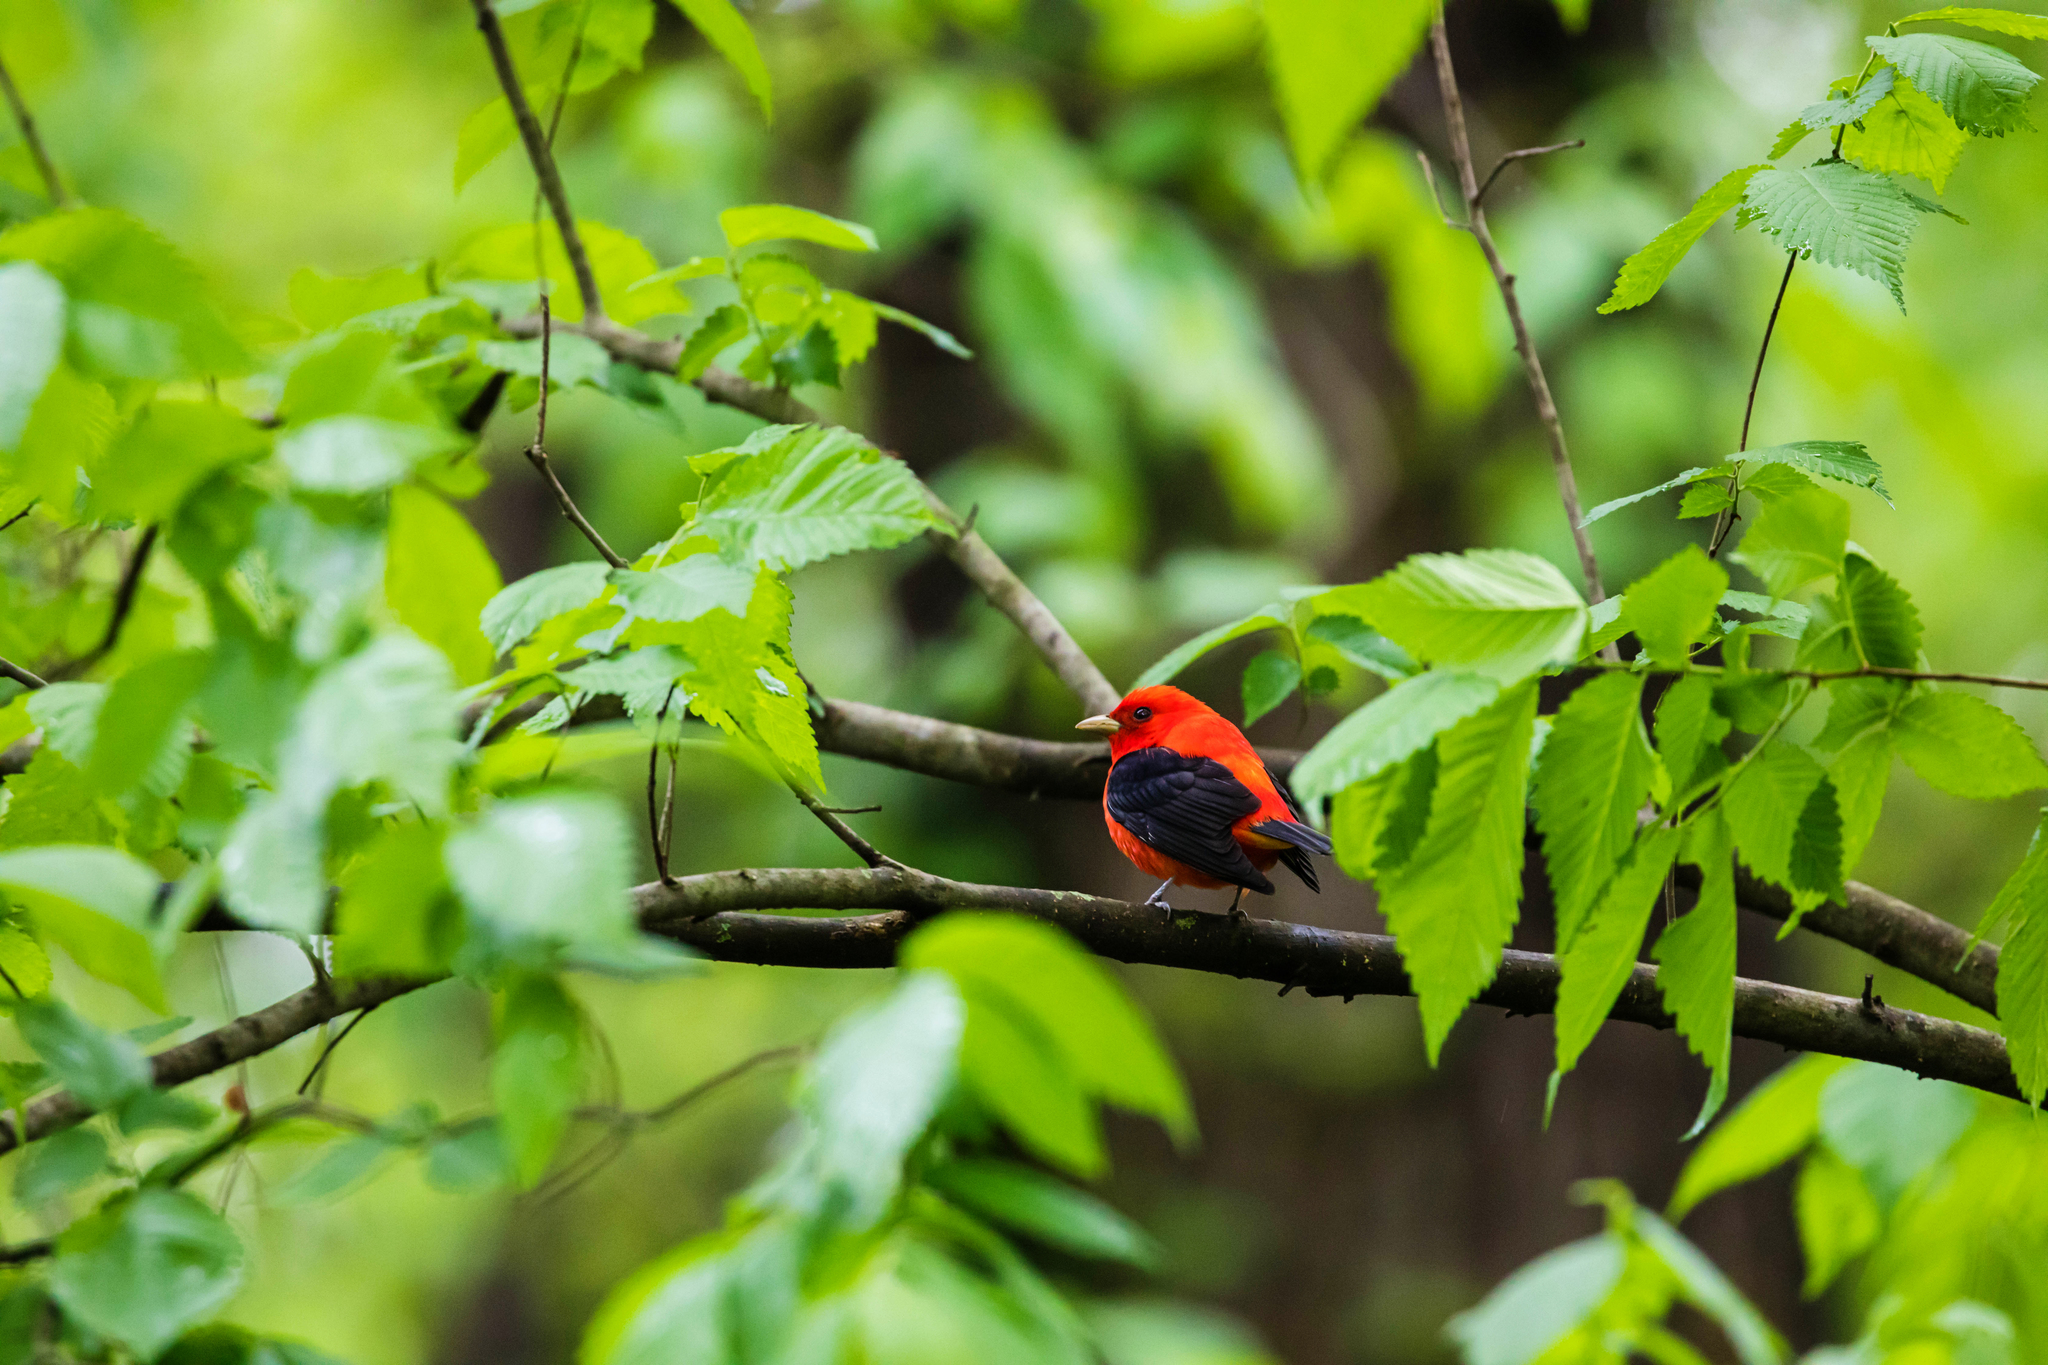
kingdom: Animalia
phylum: Chordata
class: Aves
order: Passeriformes
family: Cardinalidae
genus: Piranga
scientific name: Piranga olivacea
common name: Scarlet tanager
